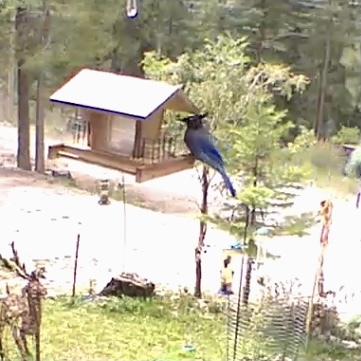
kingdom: Animalia
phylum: Chordata
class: Aves
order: Passeriformes
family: Corvidae
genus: Cyanocitta
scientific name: Cyanocitta stelleri
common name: Steller's jay
